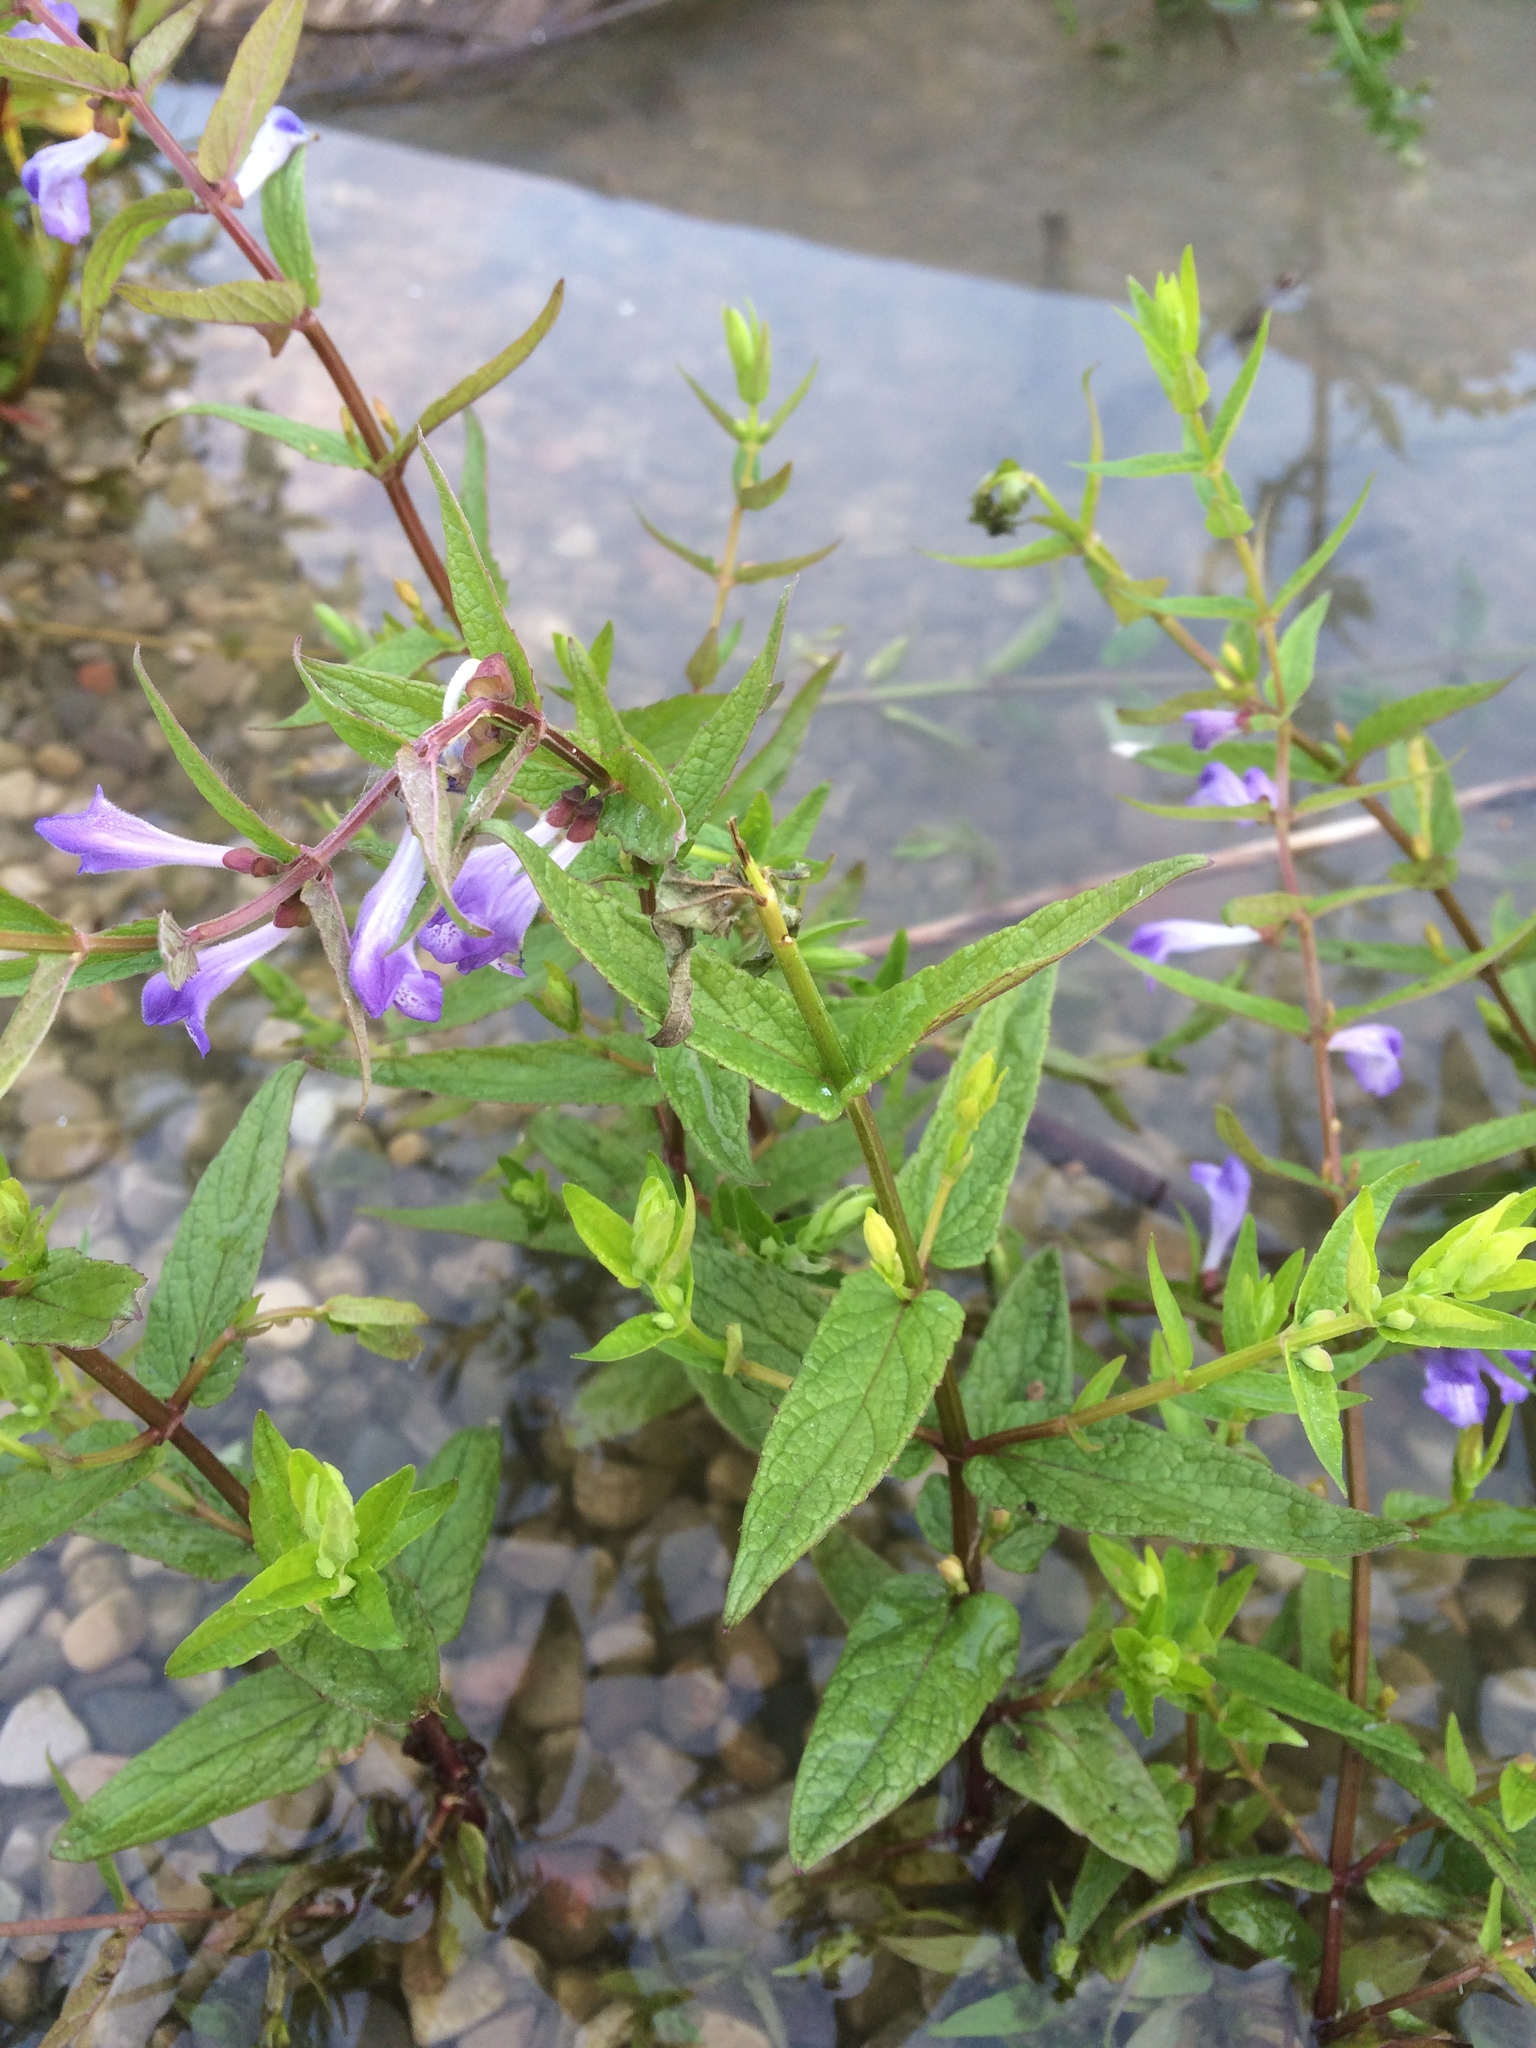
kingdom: Plantae
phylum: Tracheophyta
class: Magnoliopsida
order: Lamiales
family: Lamiaceae
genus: Scutellaria
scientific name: Scutellaria galericulata
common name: Skullcap
